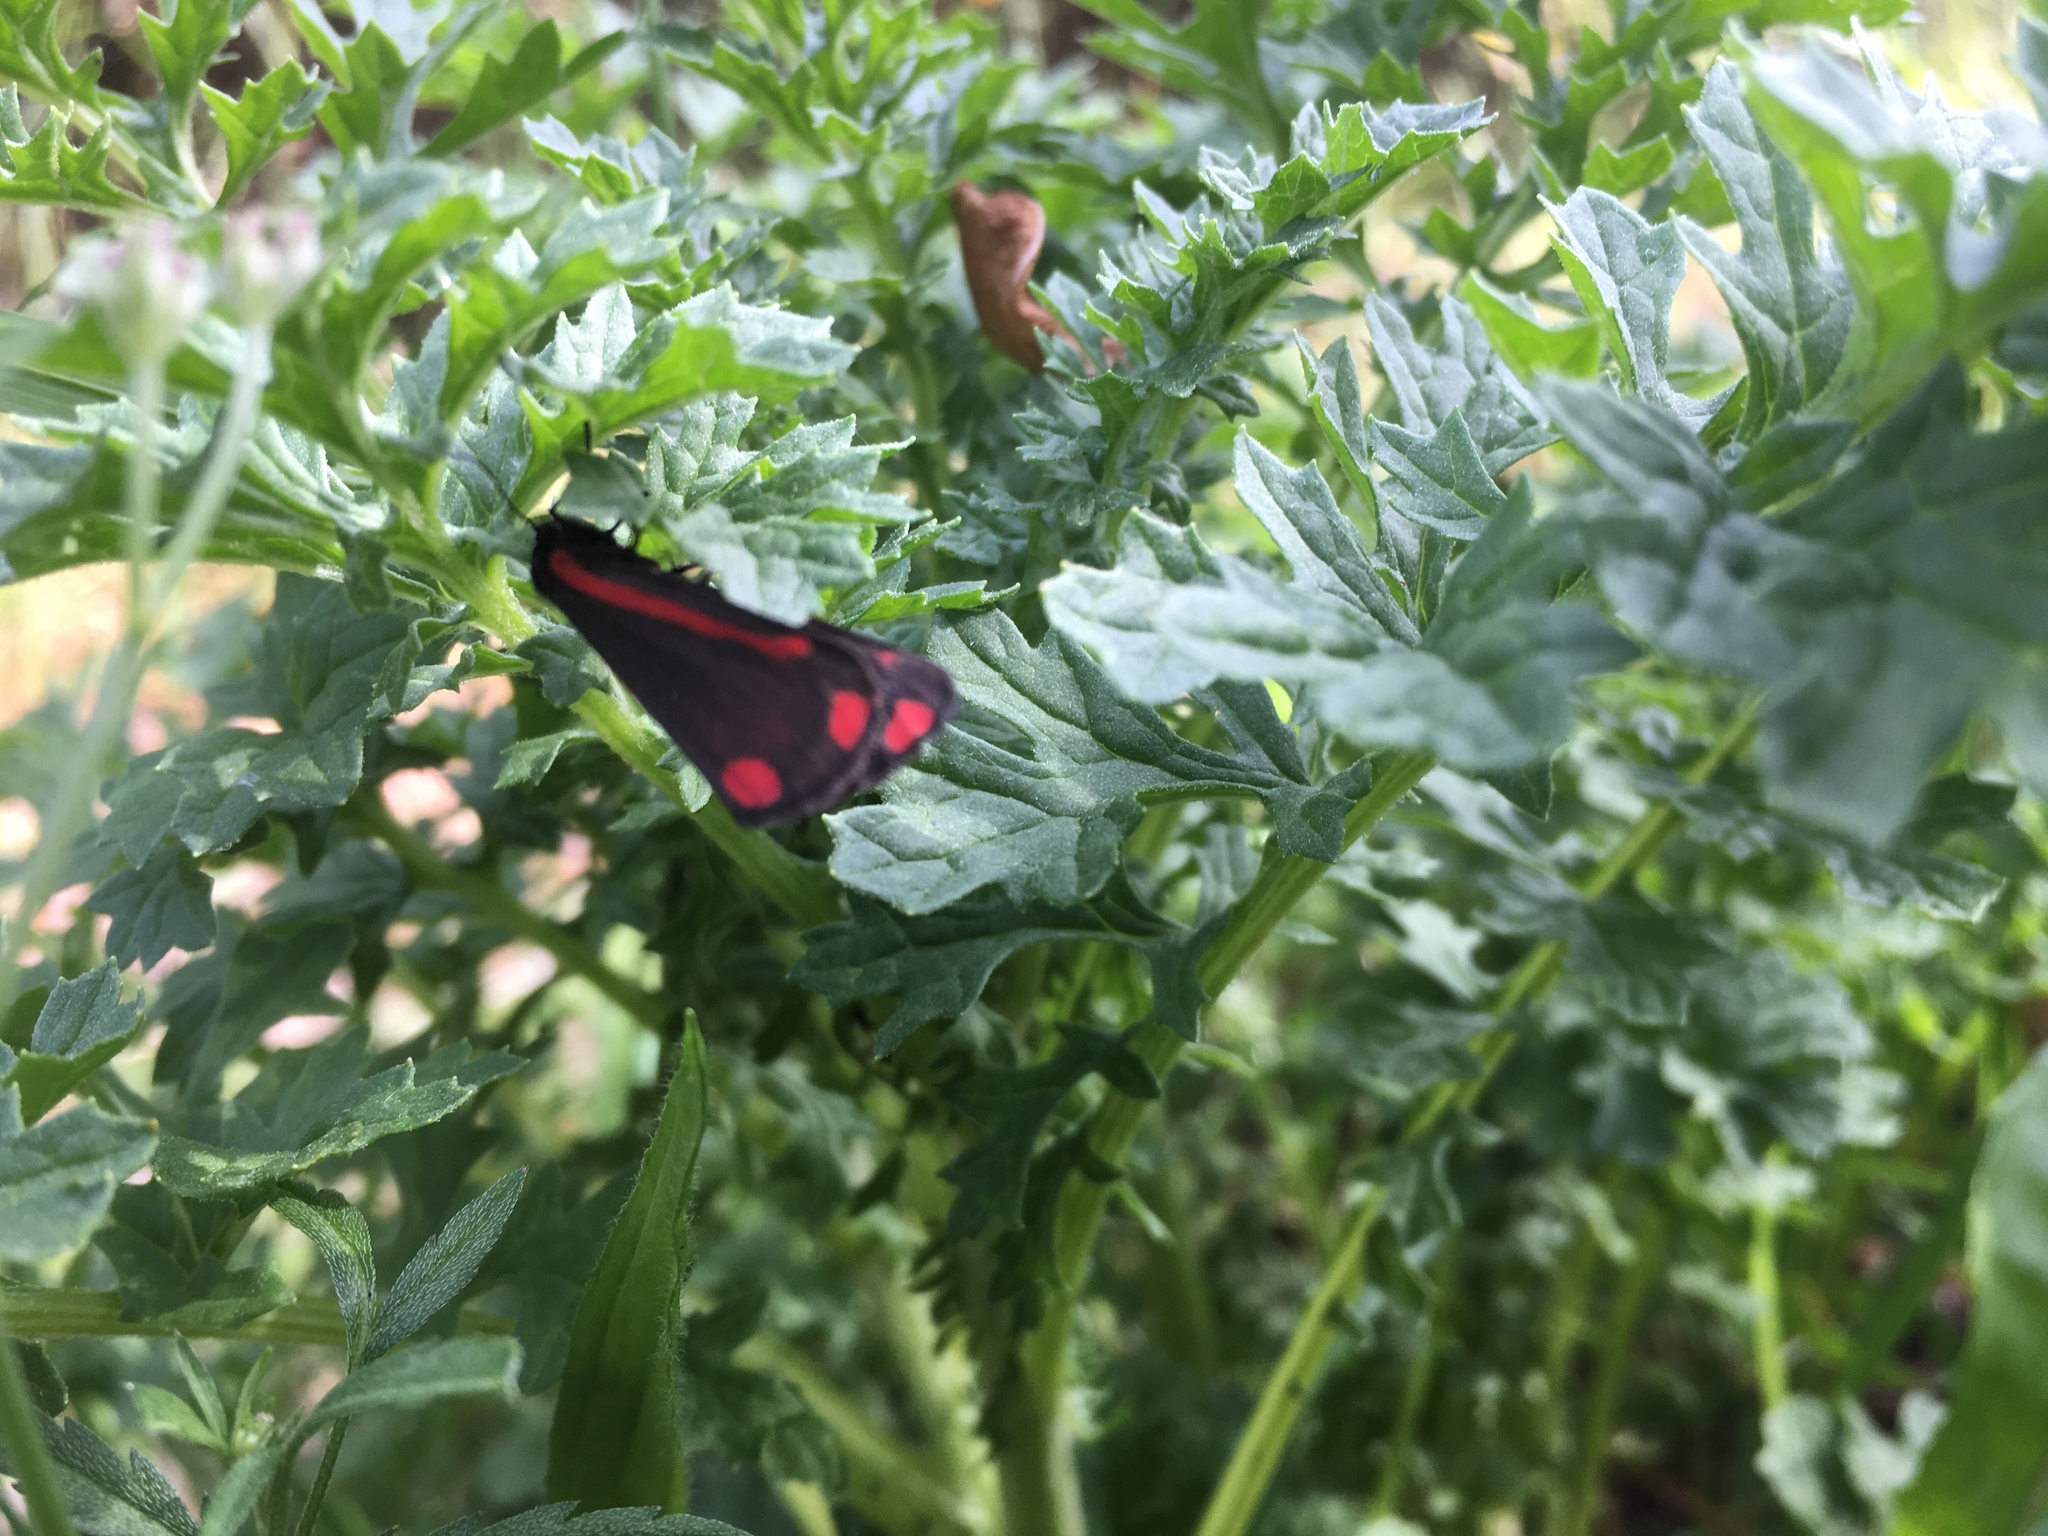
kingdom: Animalia
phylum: Arthropoda
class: Insecta
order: Lepidoptera
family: Erebidae
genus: Tyria
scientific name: Tyria jacobaeae
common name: Cinnabar
